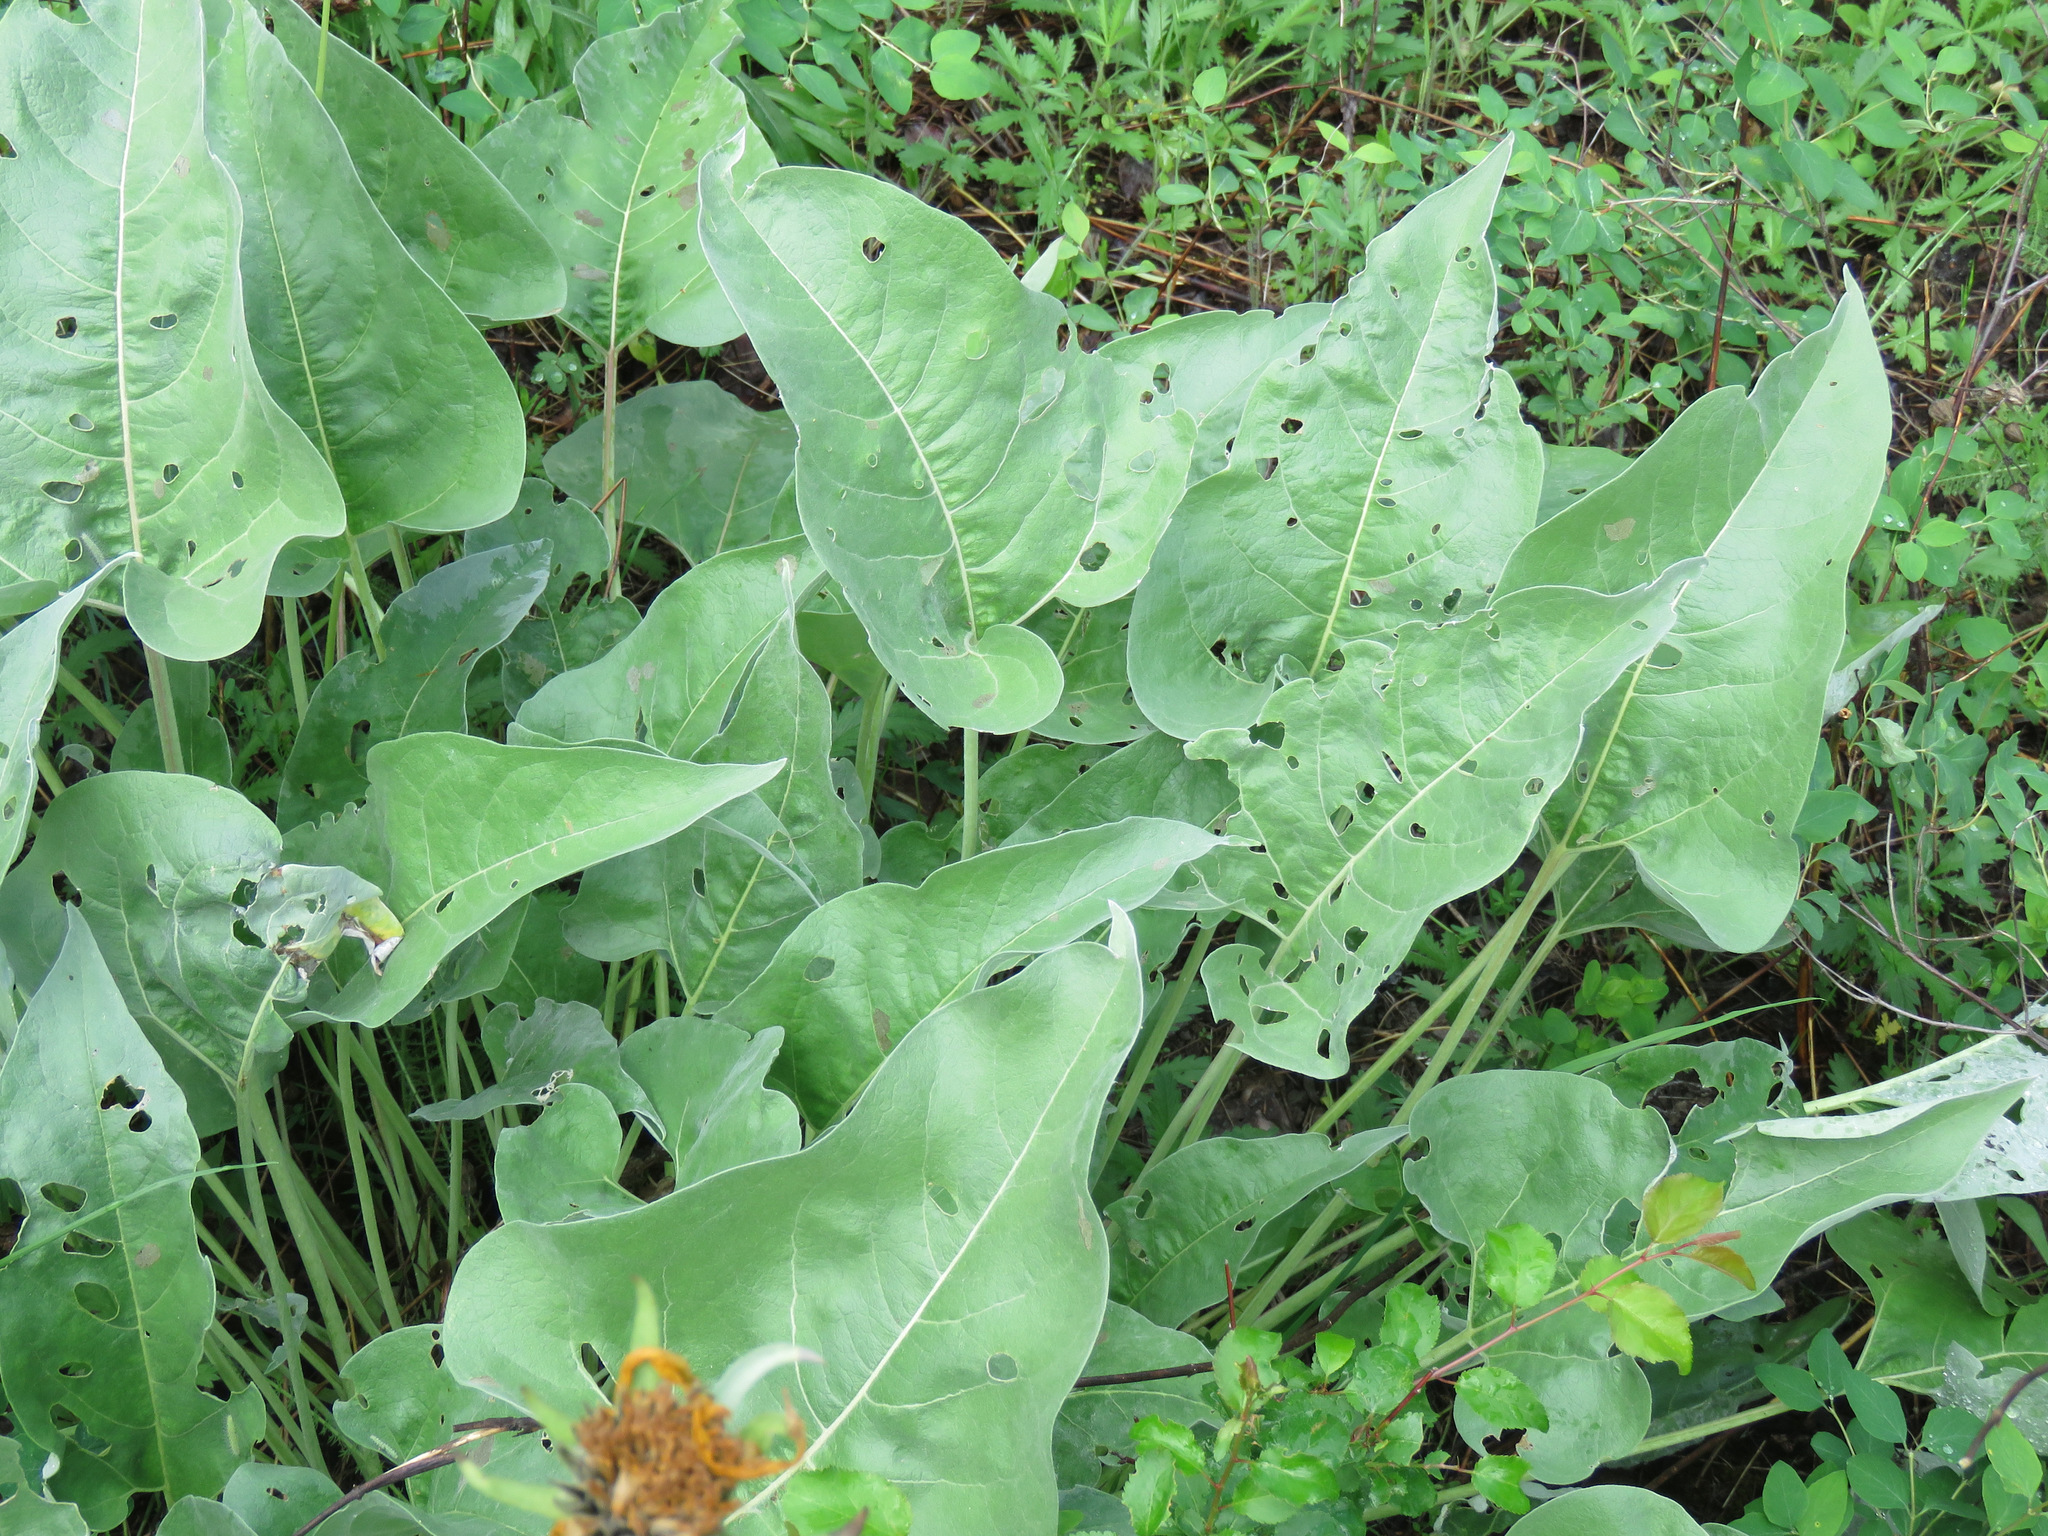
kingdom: Plantae
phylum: Tracheophyta
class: Magnoliopsida
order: Asterales
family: Asteraceae
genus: Wyethia
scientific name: Wyethia sagittata
